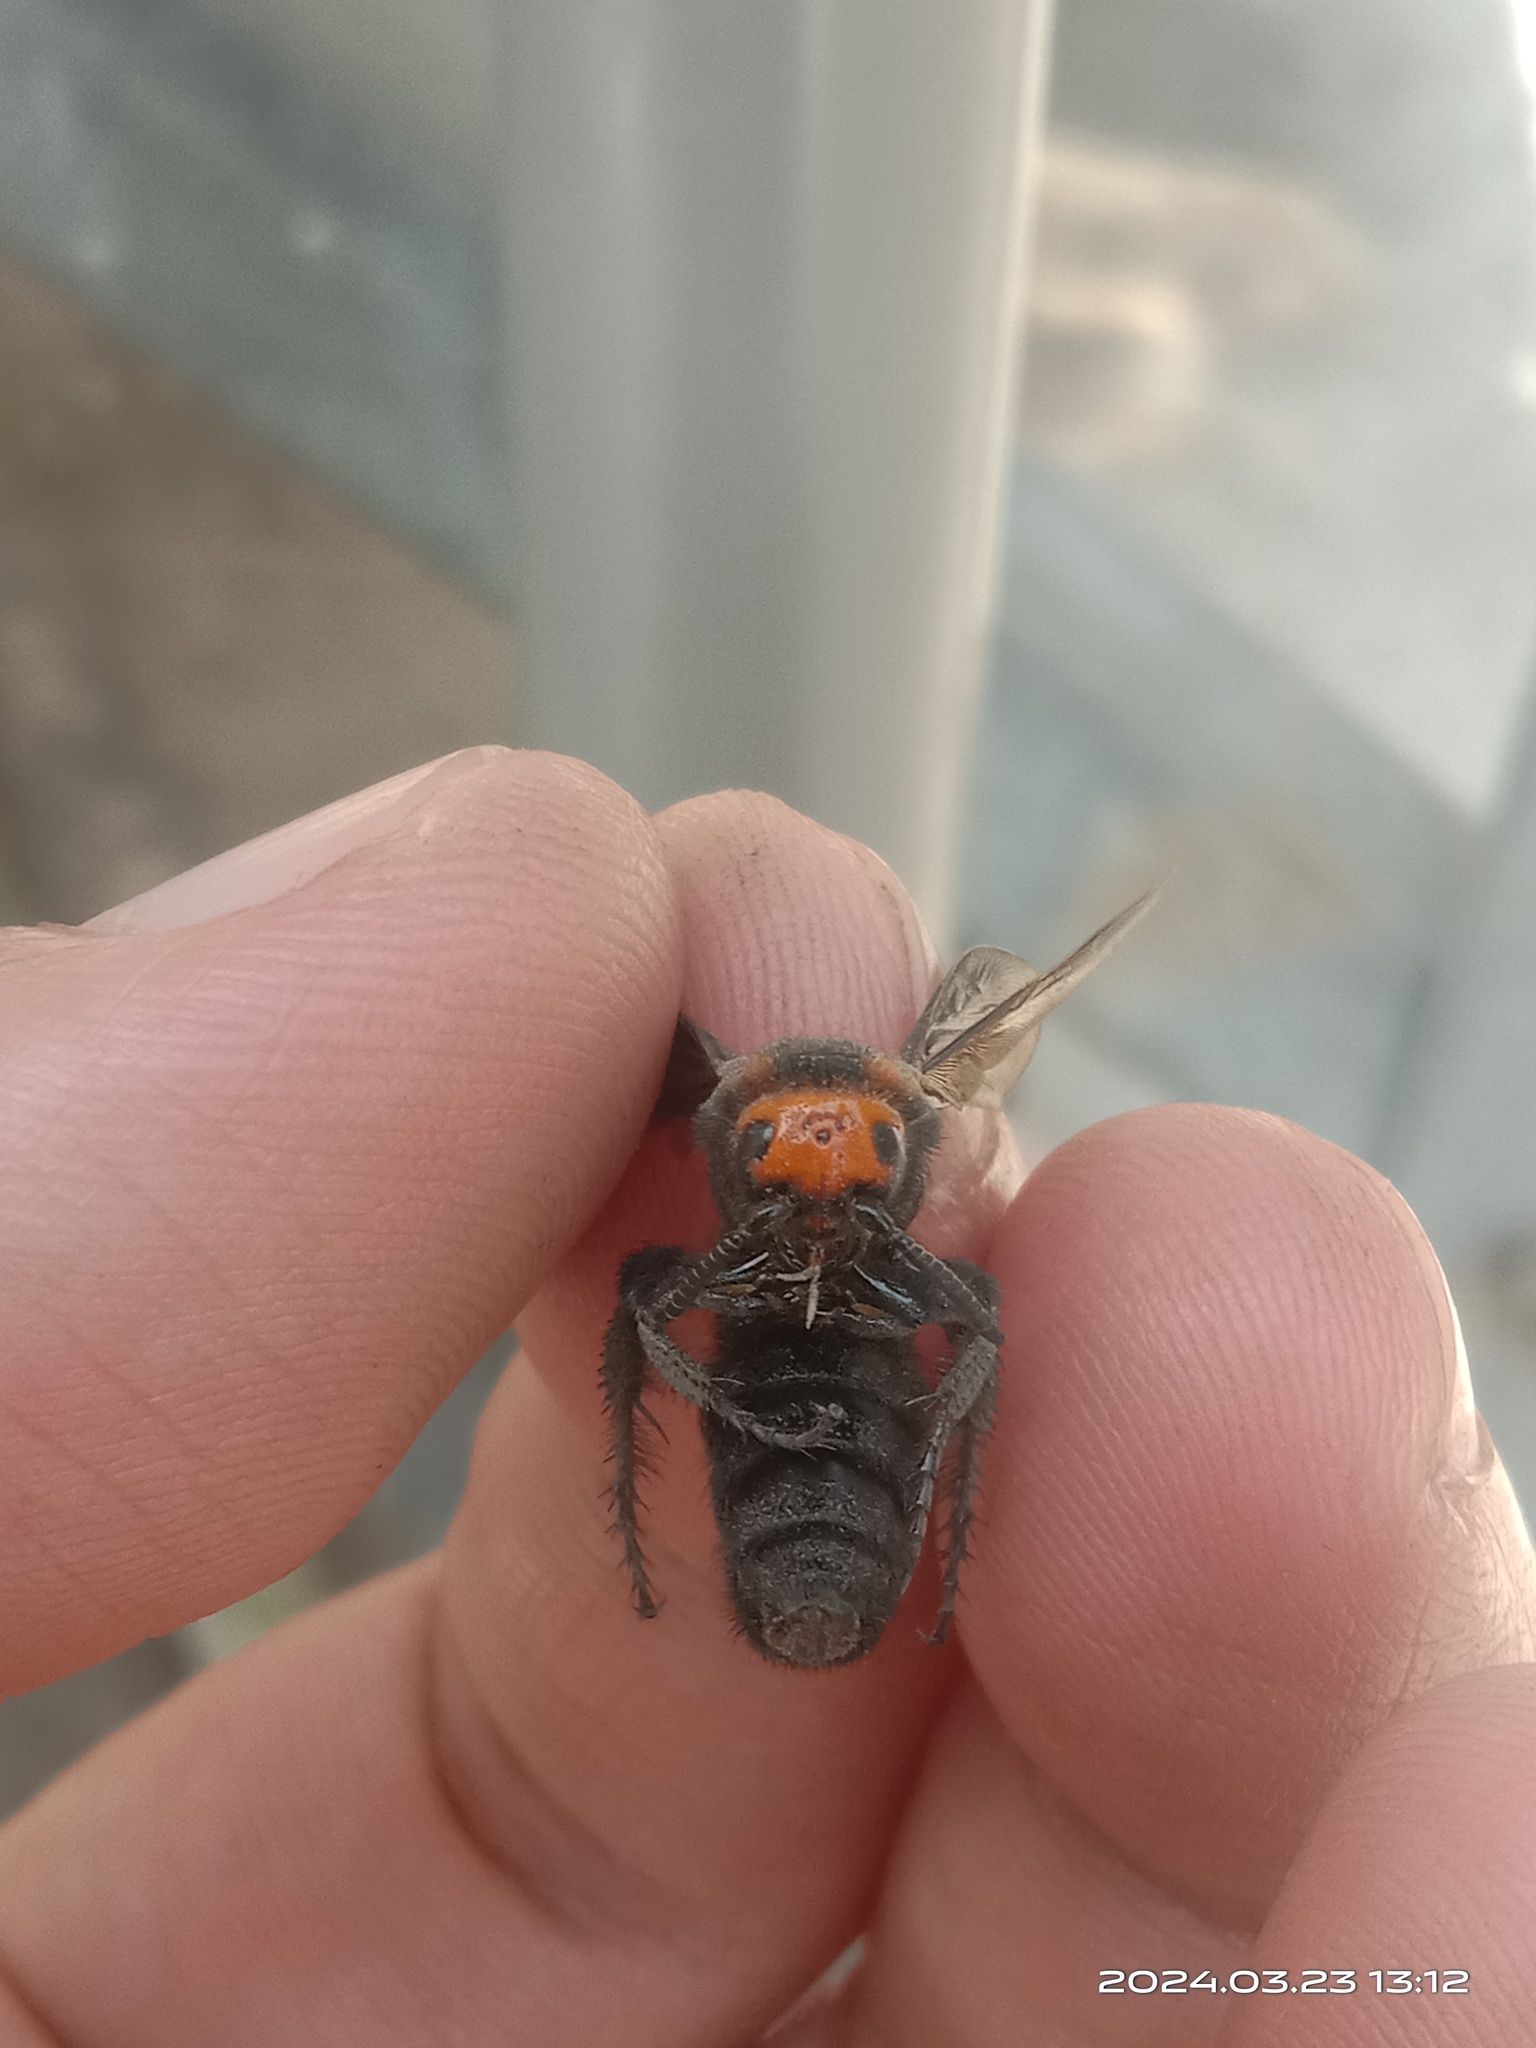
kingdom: Animalia
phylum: Arthropoda
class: Insecta
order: Hymenoptera
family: Scoliidae
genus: Scolia
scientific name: Scolia clypeata
